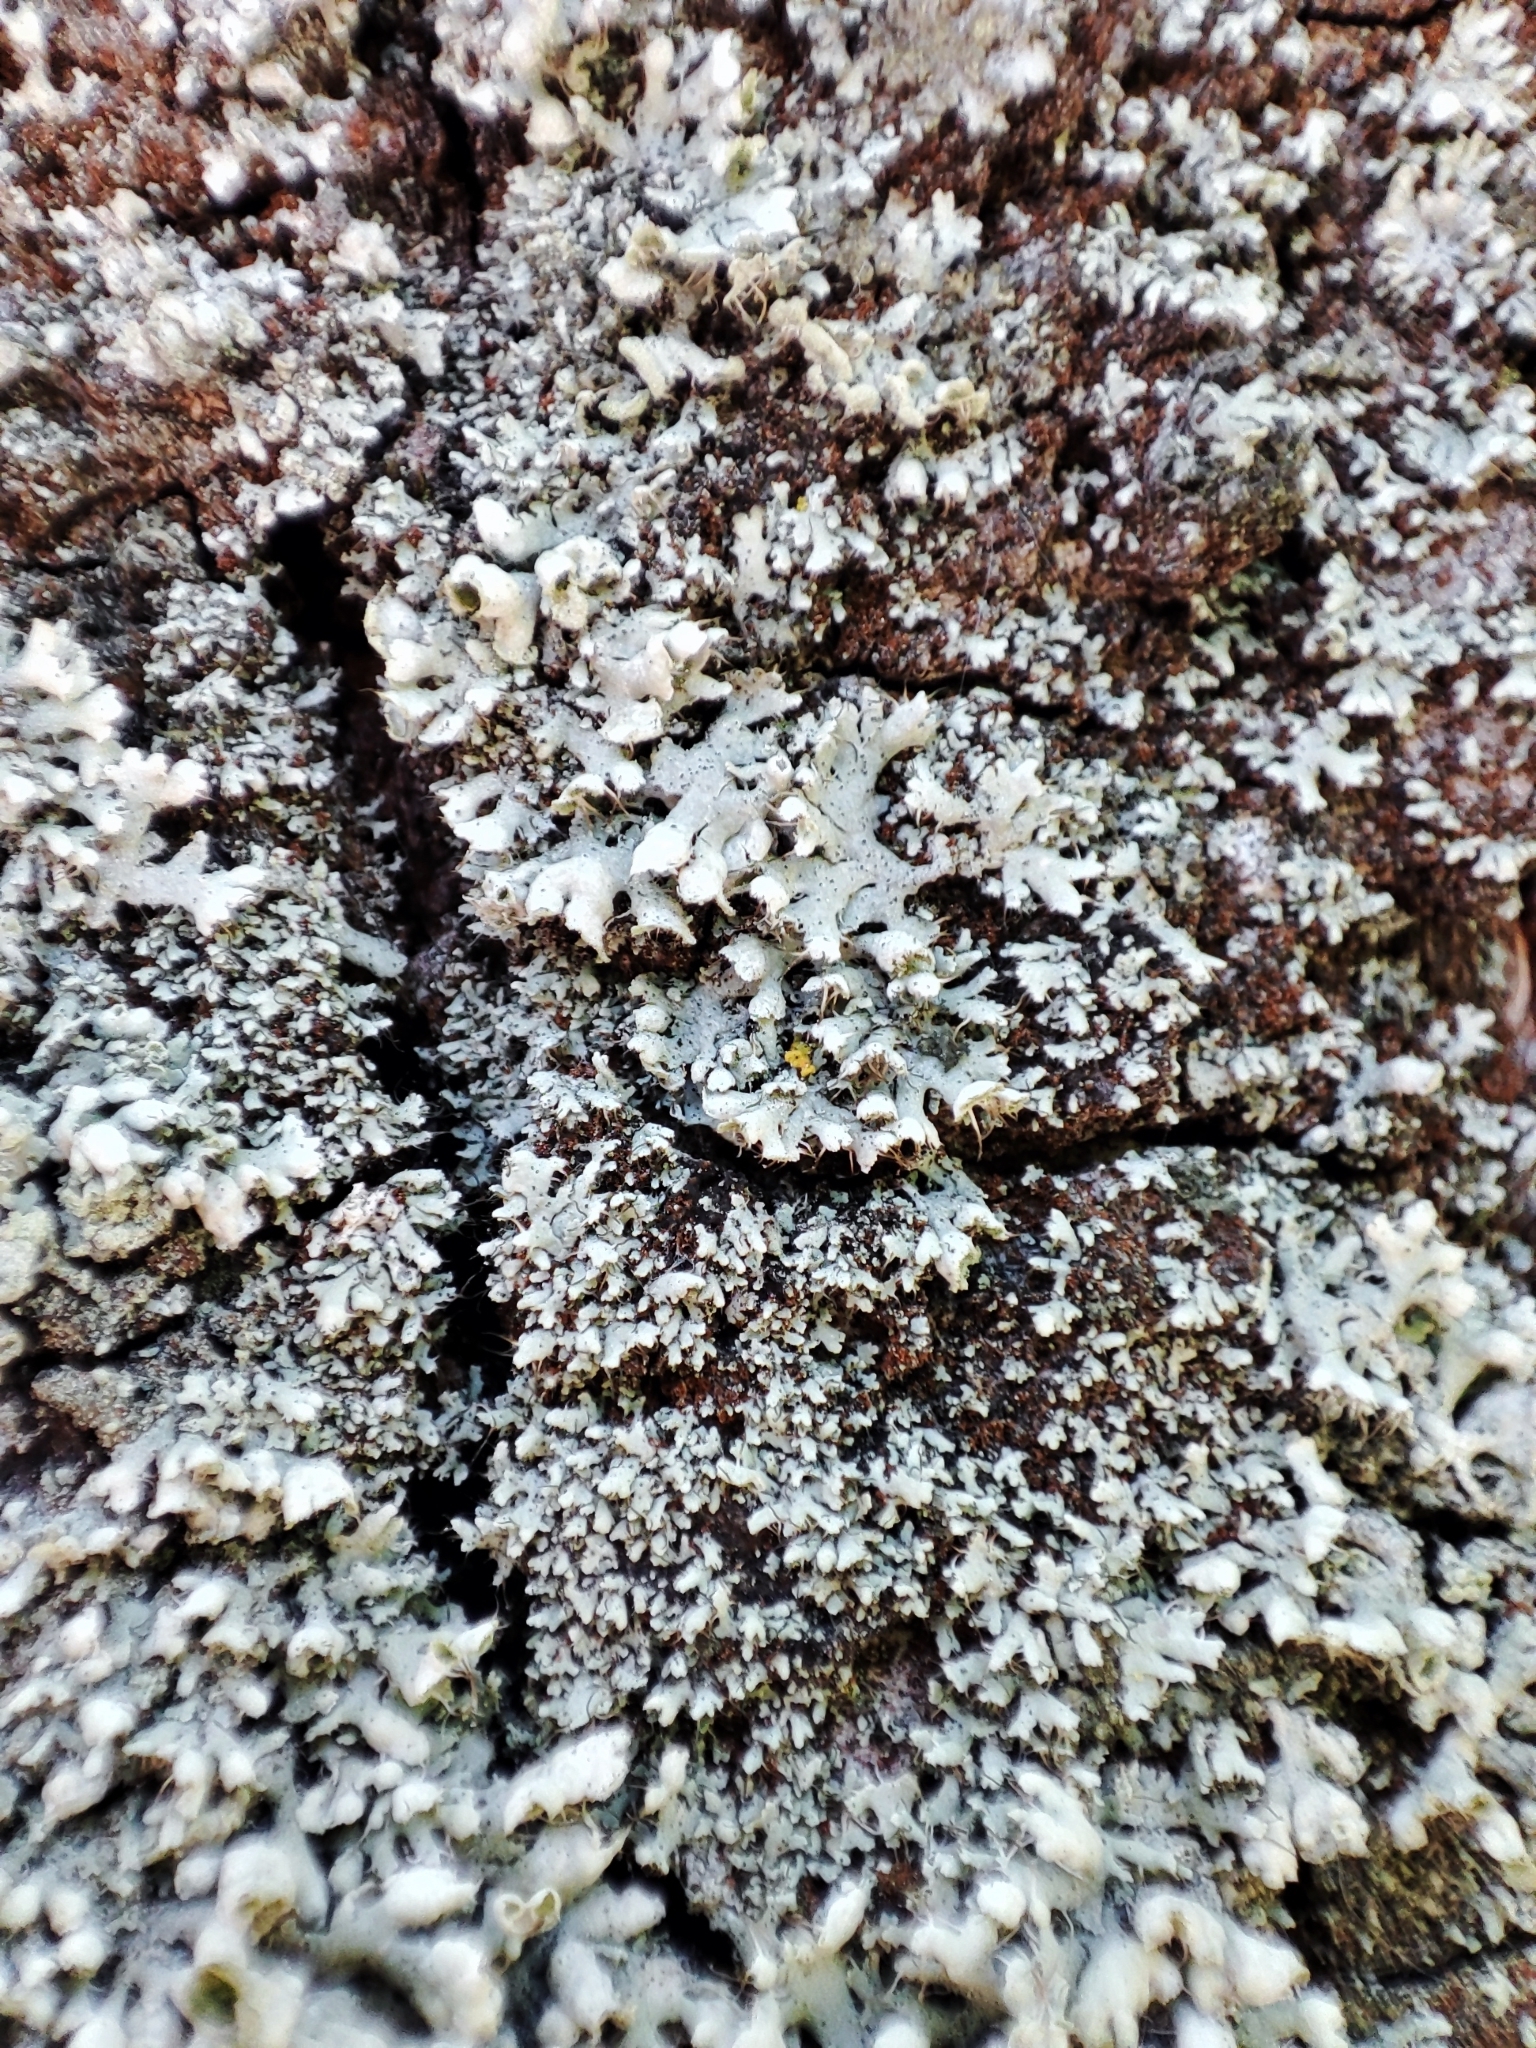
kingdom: Fungi
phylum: Ascomycota
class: Lecanoromycetes
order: Caliciales
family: Physciaceae
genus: Physcia
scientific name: Physcia adscendens
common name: Hooded rosette lichen
